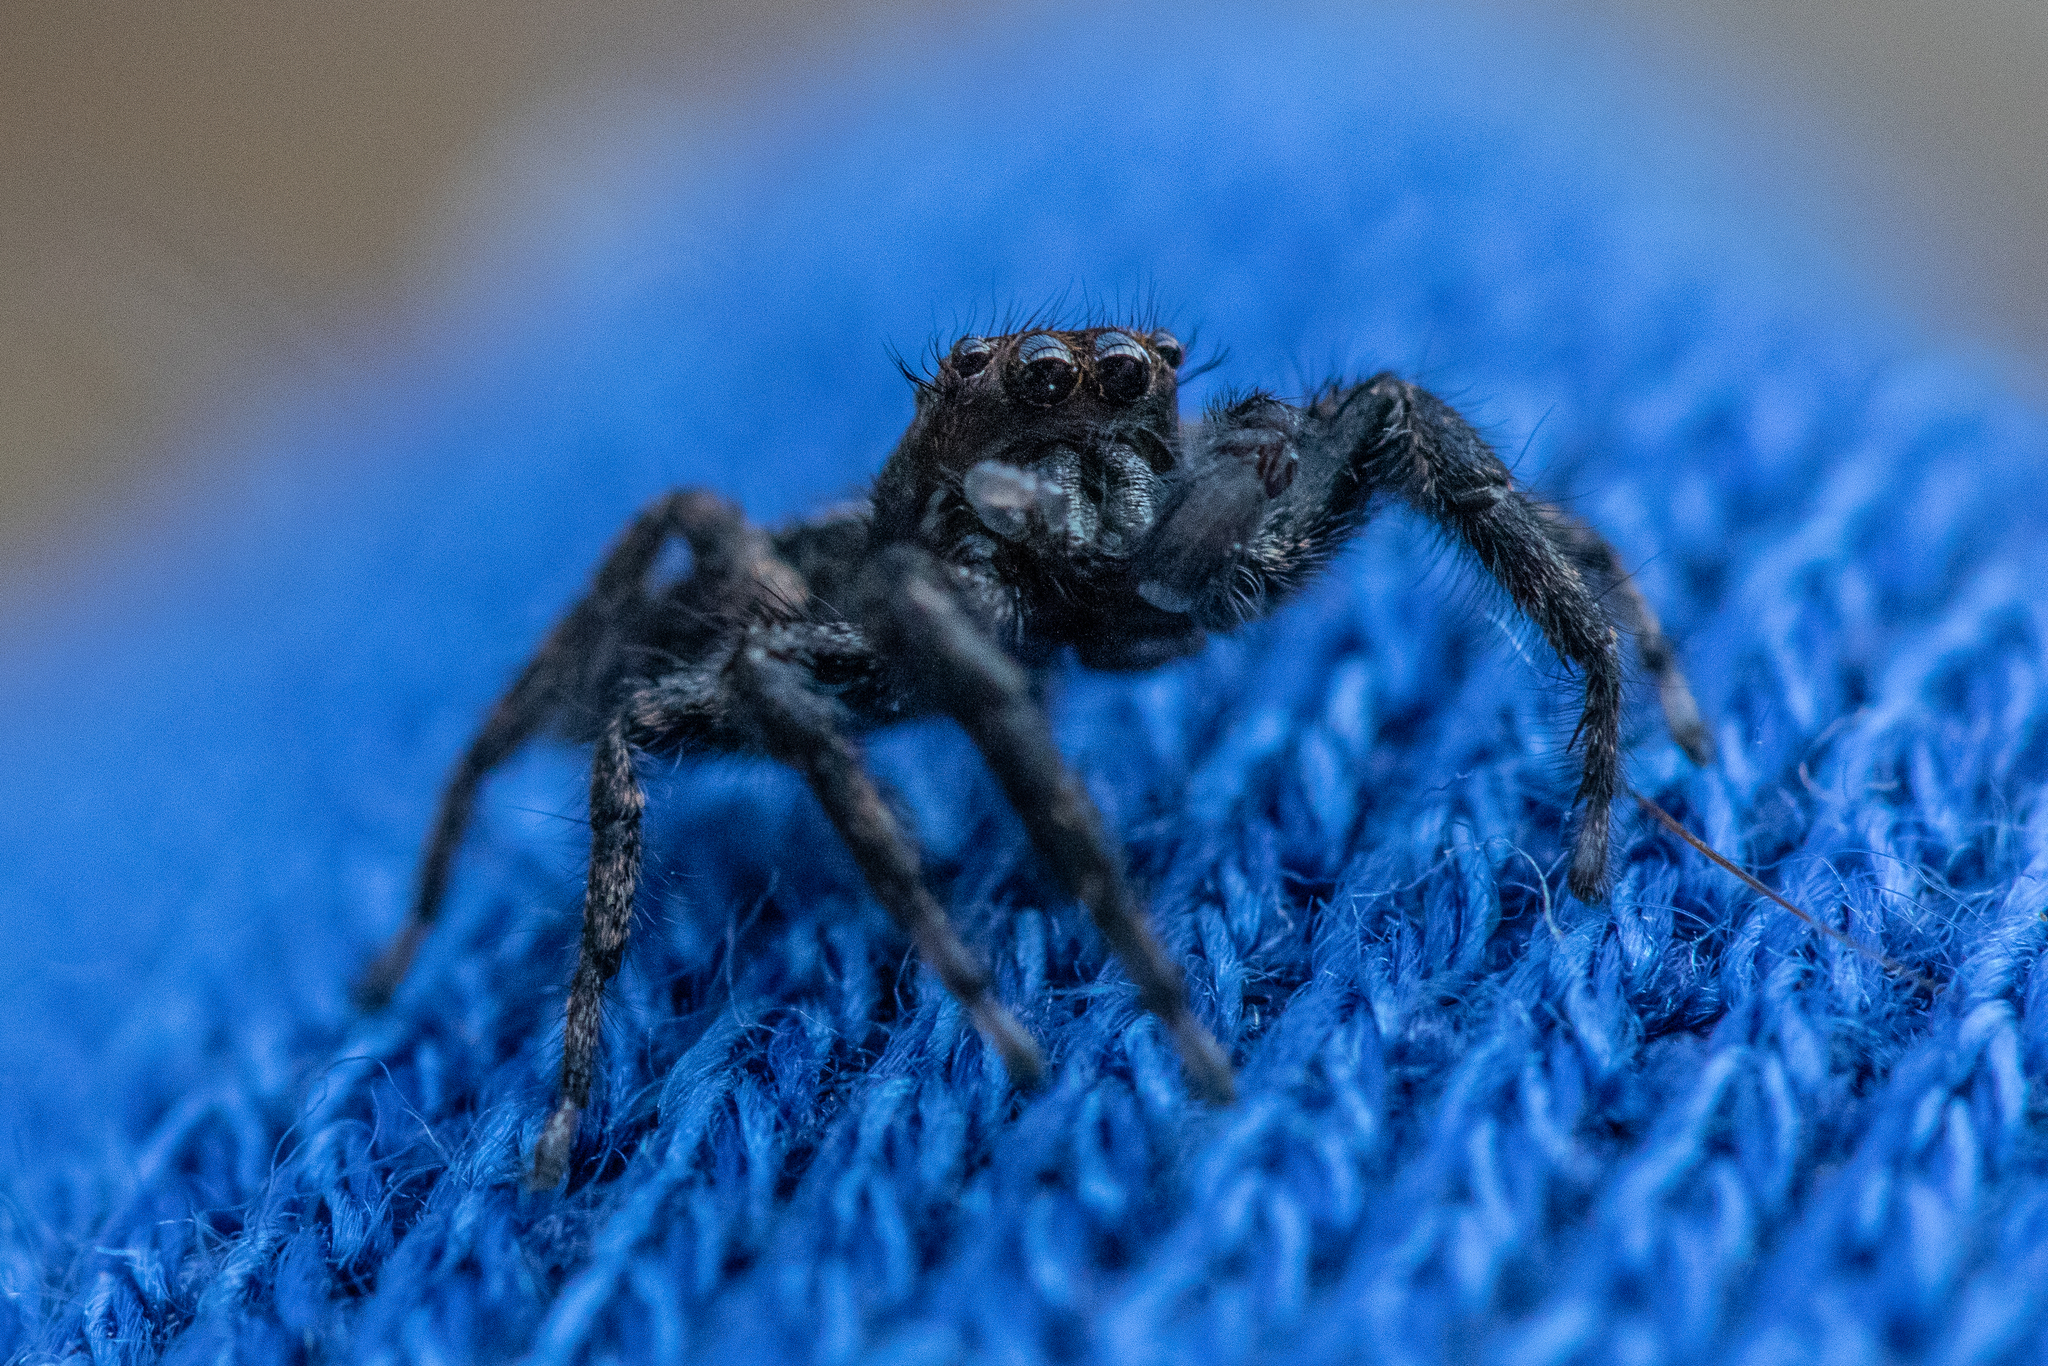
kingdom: Animalia
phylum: Arthropoda
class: Arachnida
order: Araneae
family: Salticidae
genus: Platycryptus
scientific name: Platycryptus californicus
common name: Jumping spiders
